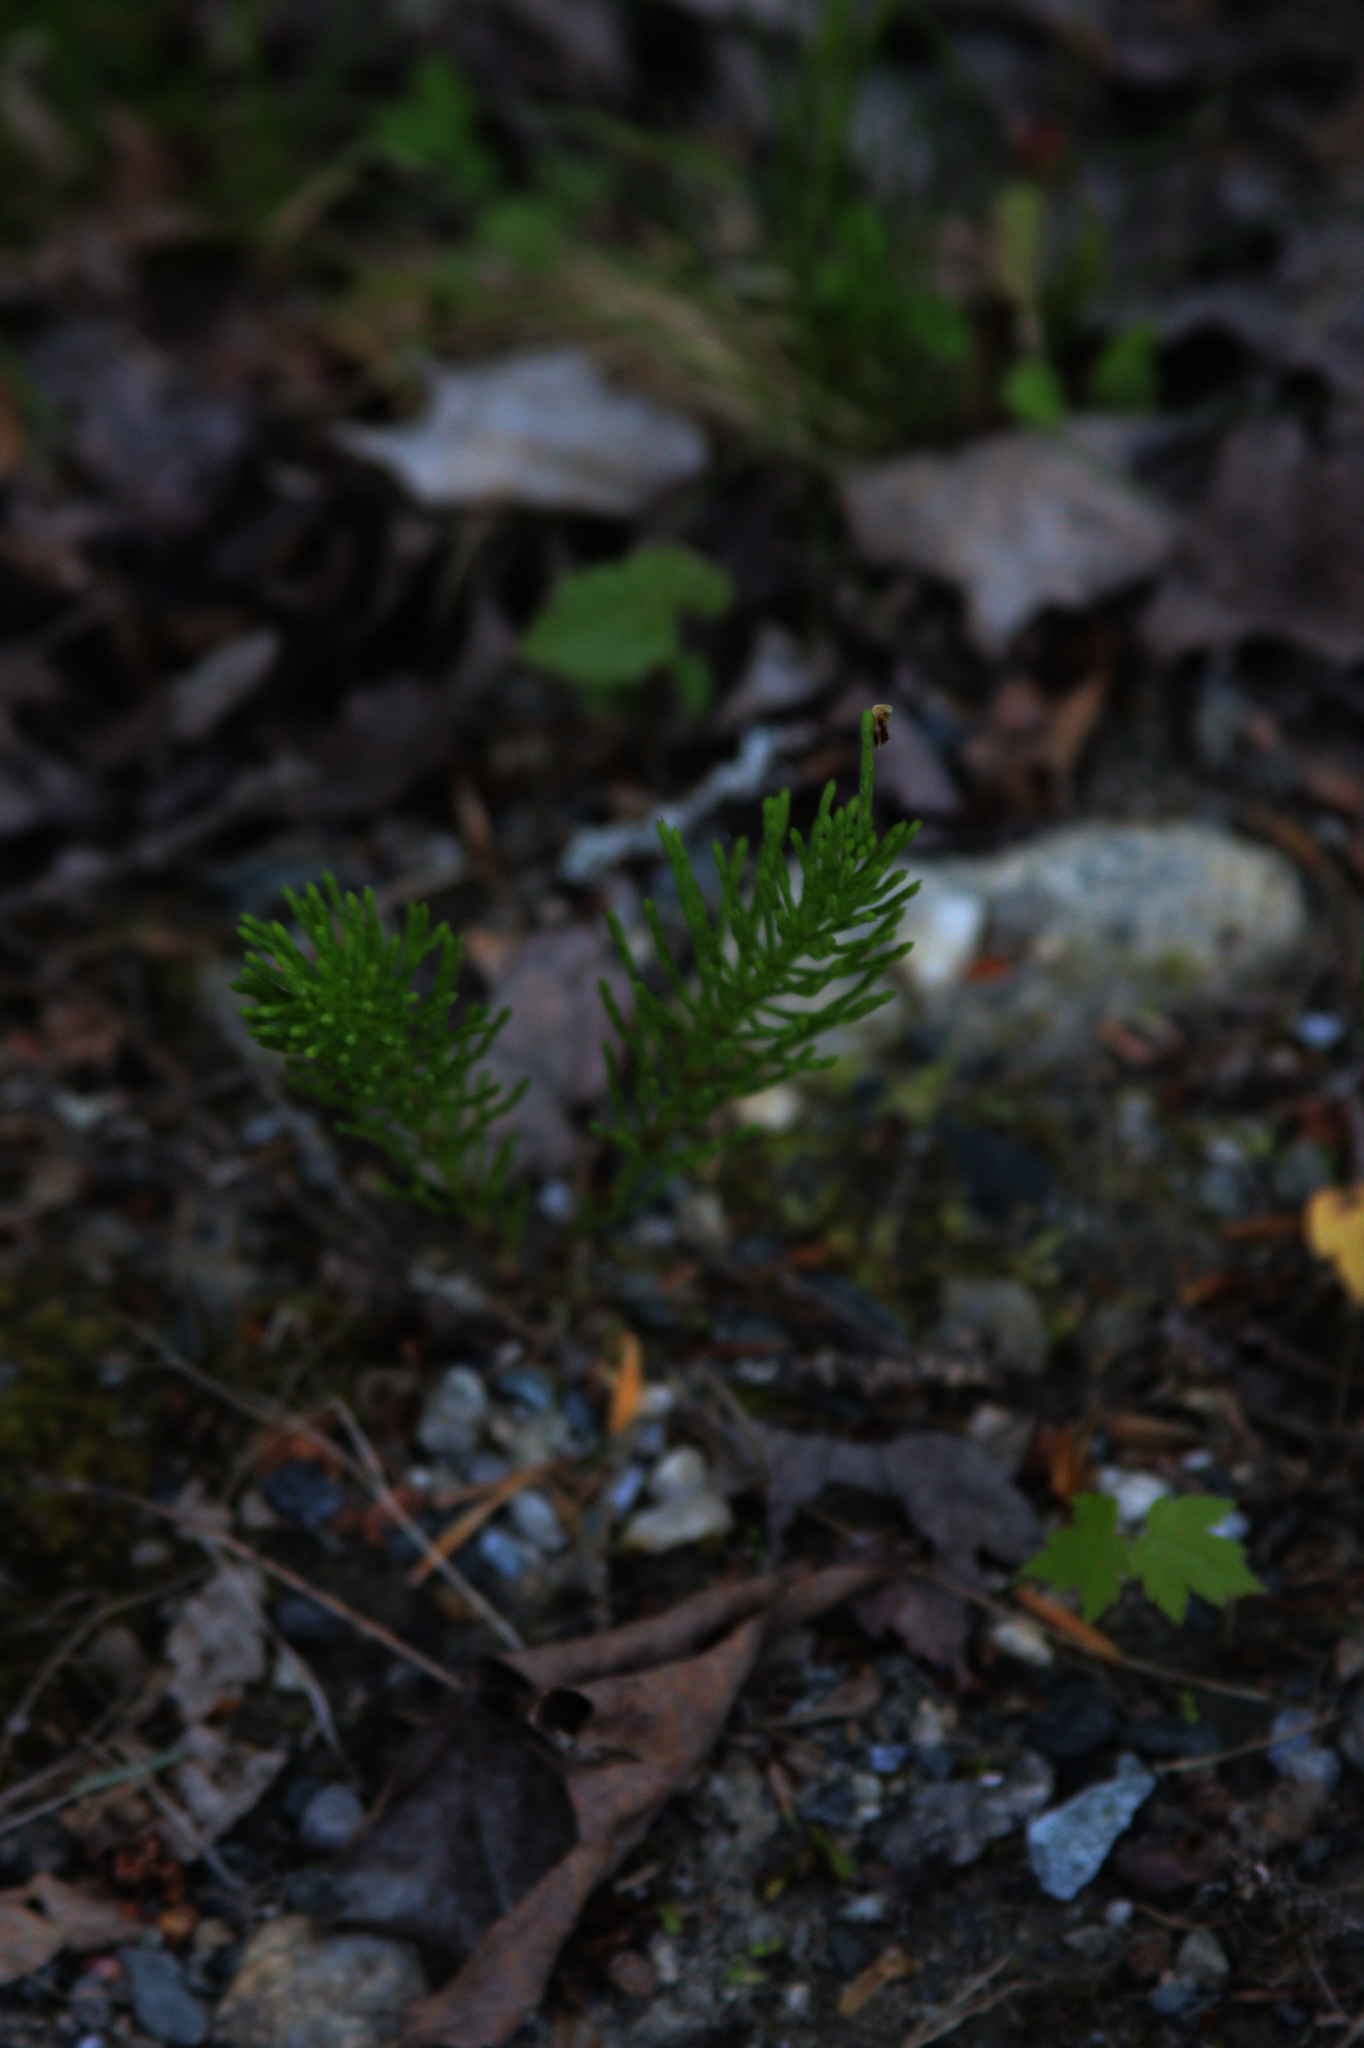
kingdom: Plantae
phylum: Tracheophyta
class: Polypodiopsida
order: Equisetales
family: Equisetaceae
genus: Equisetum
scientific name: Equisetum arvense
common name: Field horsetail
